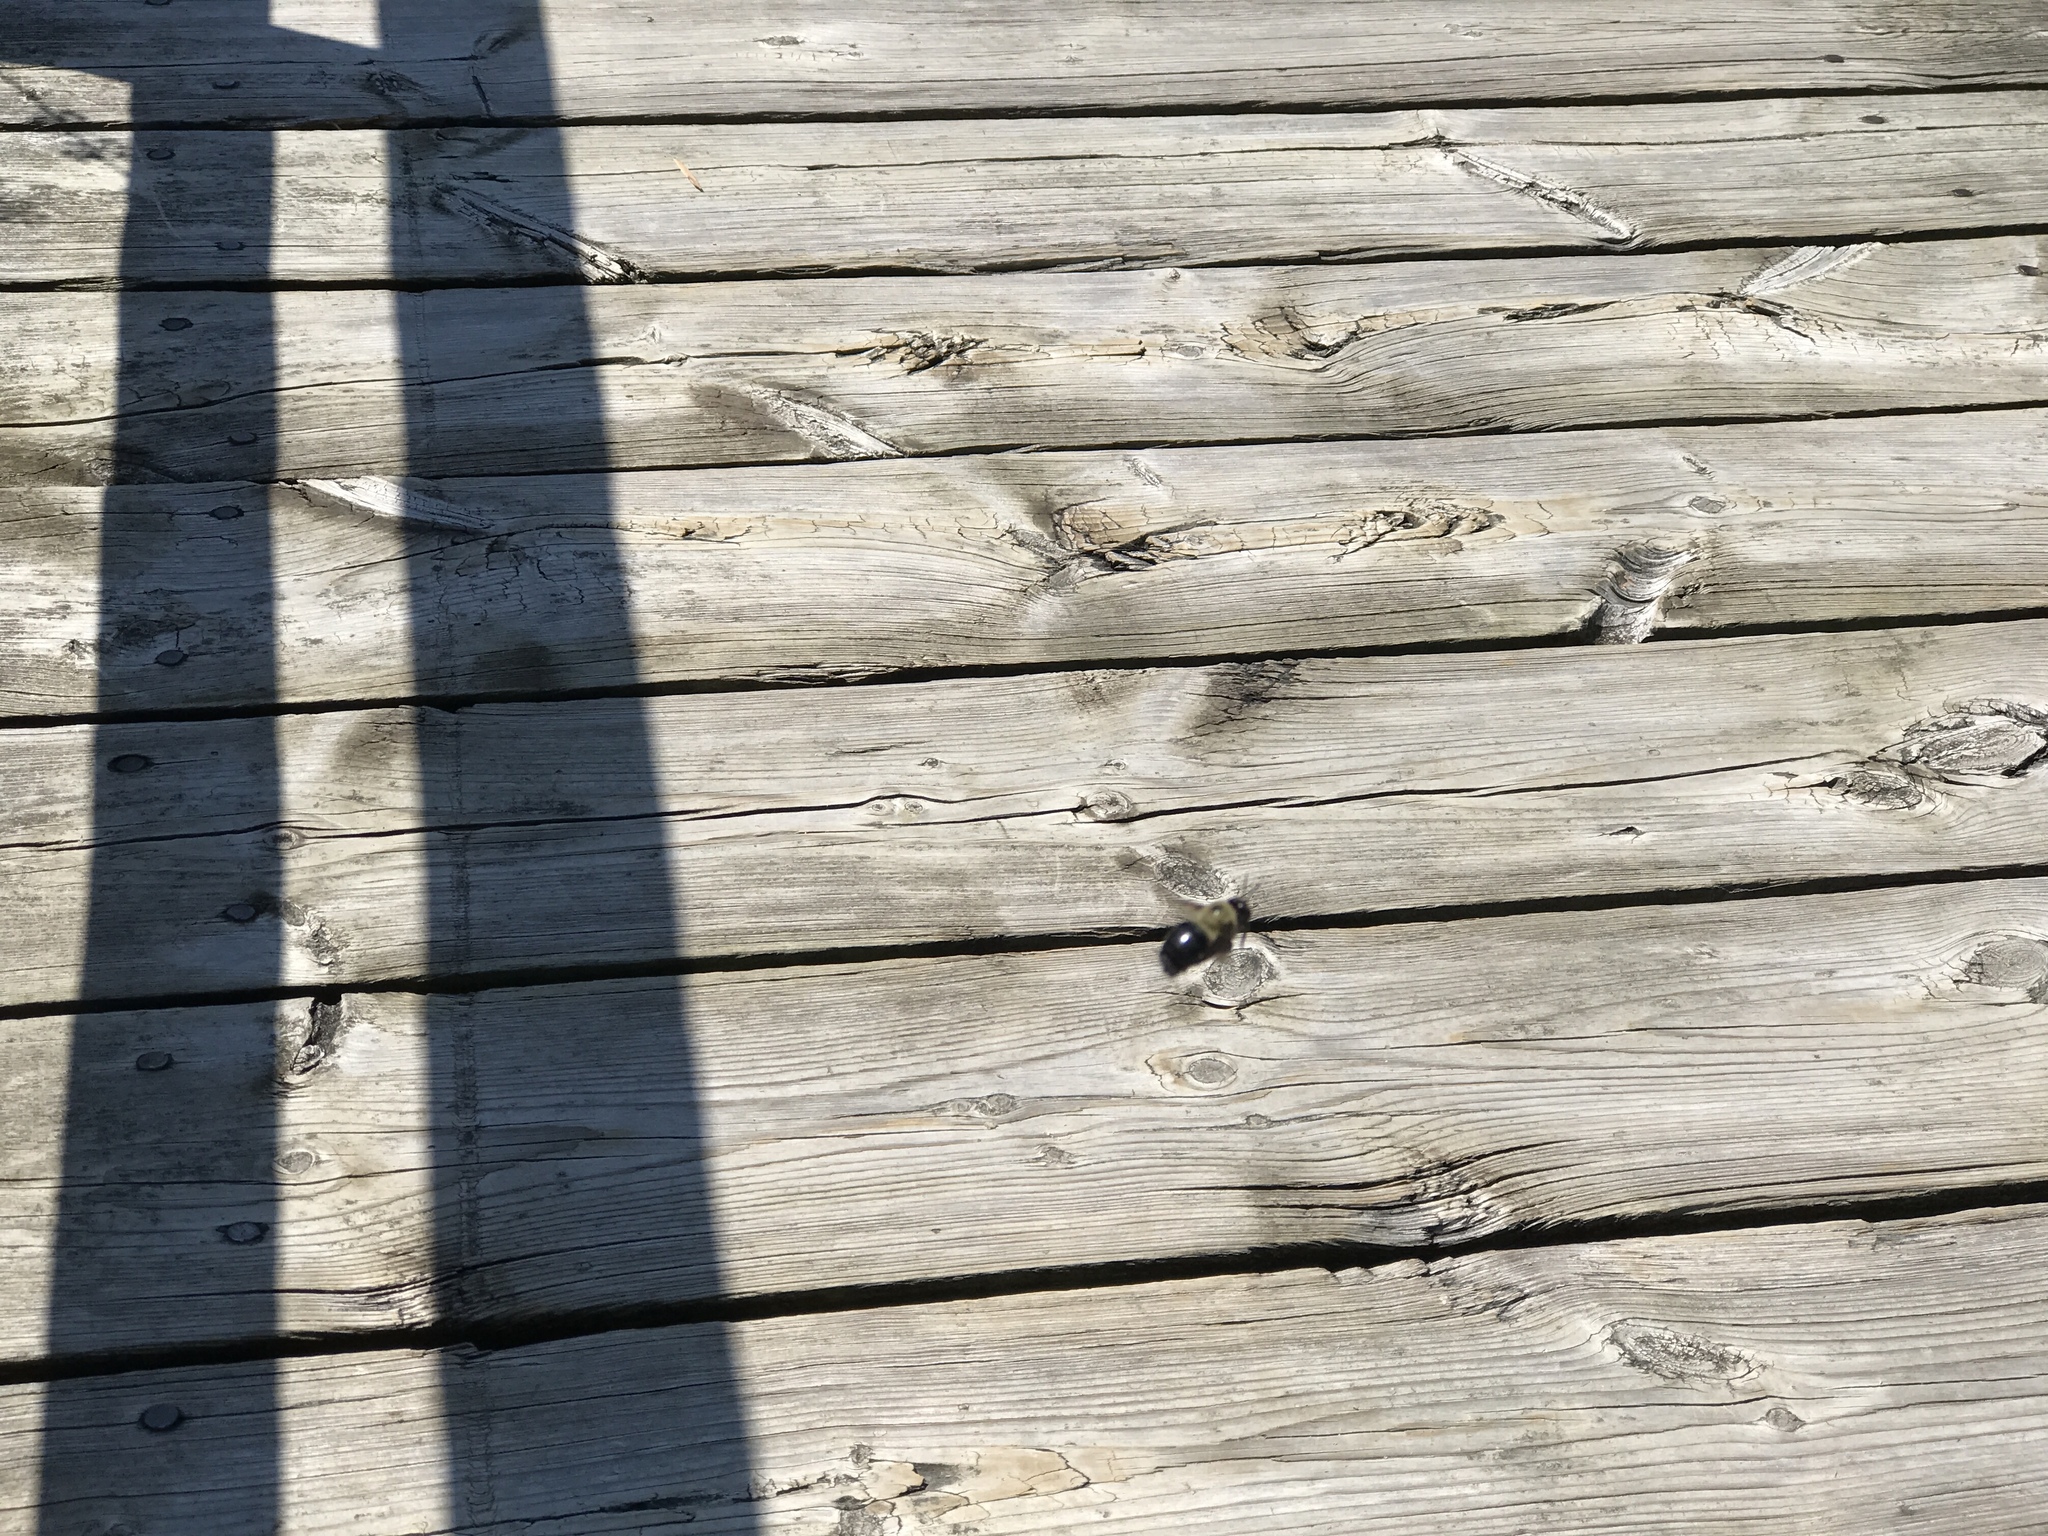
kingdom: Animalia
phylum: Arthropoda
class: Insecta
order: Hymenoptera
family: Apidae
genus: Xylocopa
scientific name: Xylocopa virginica
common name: Carpenter bee
